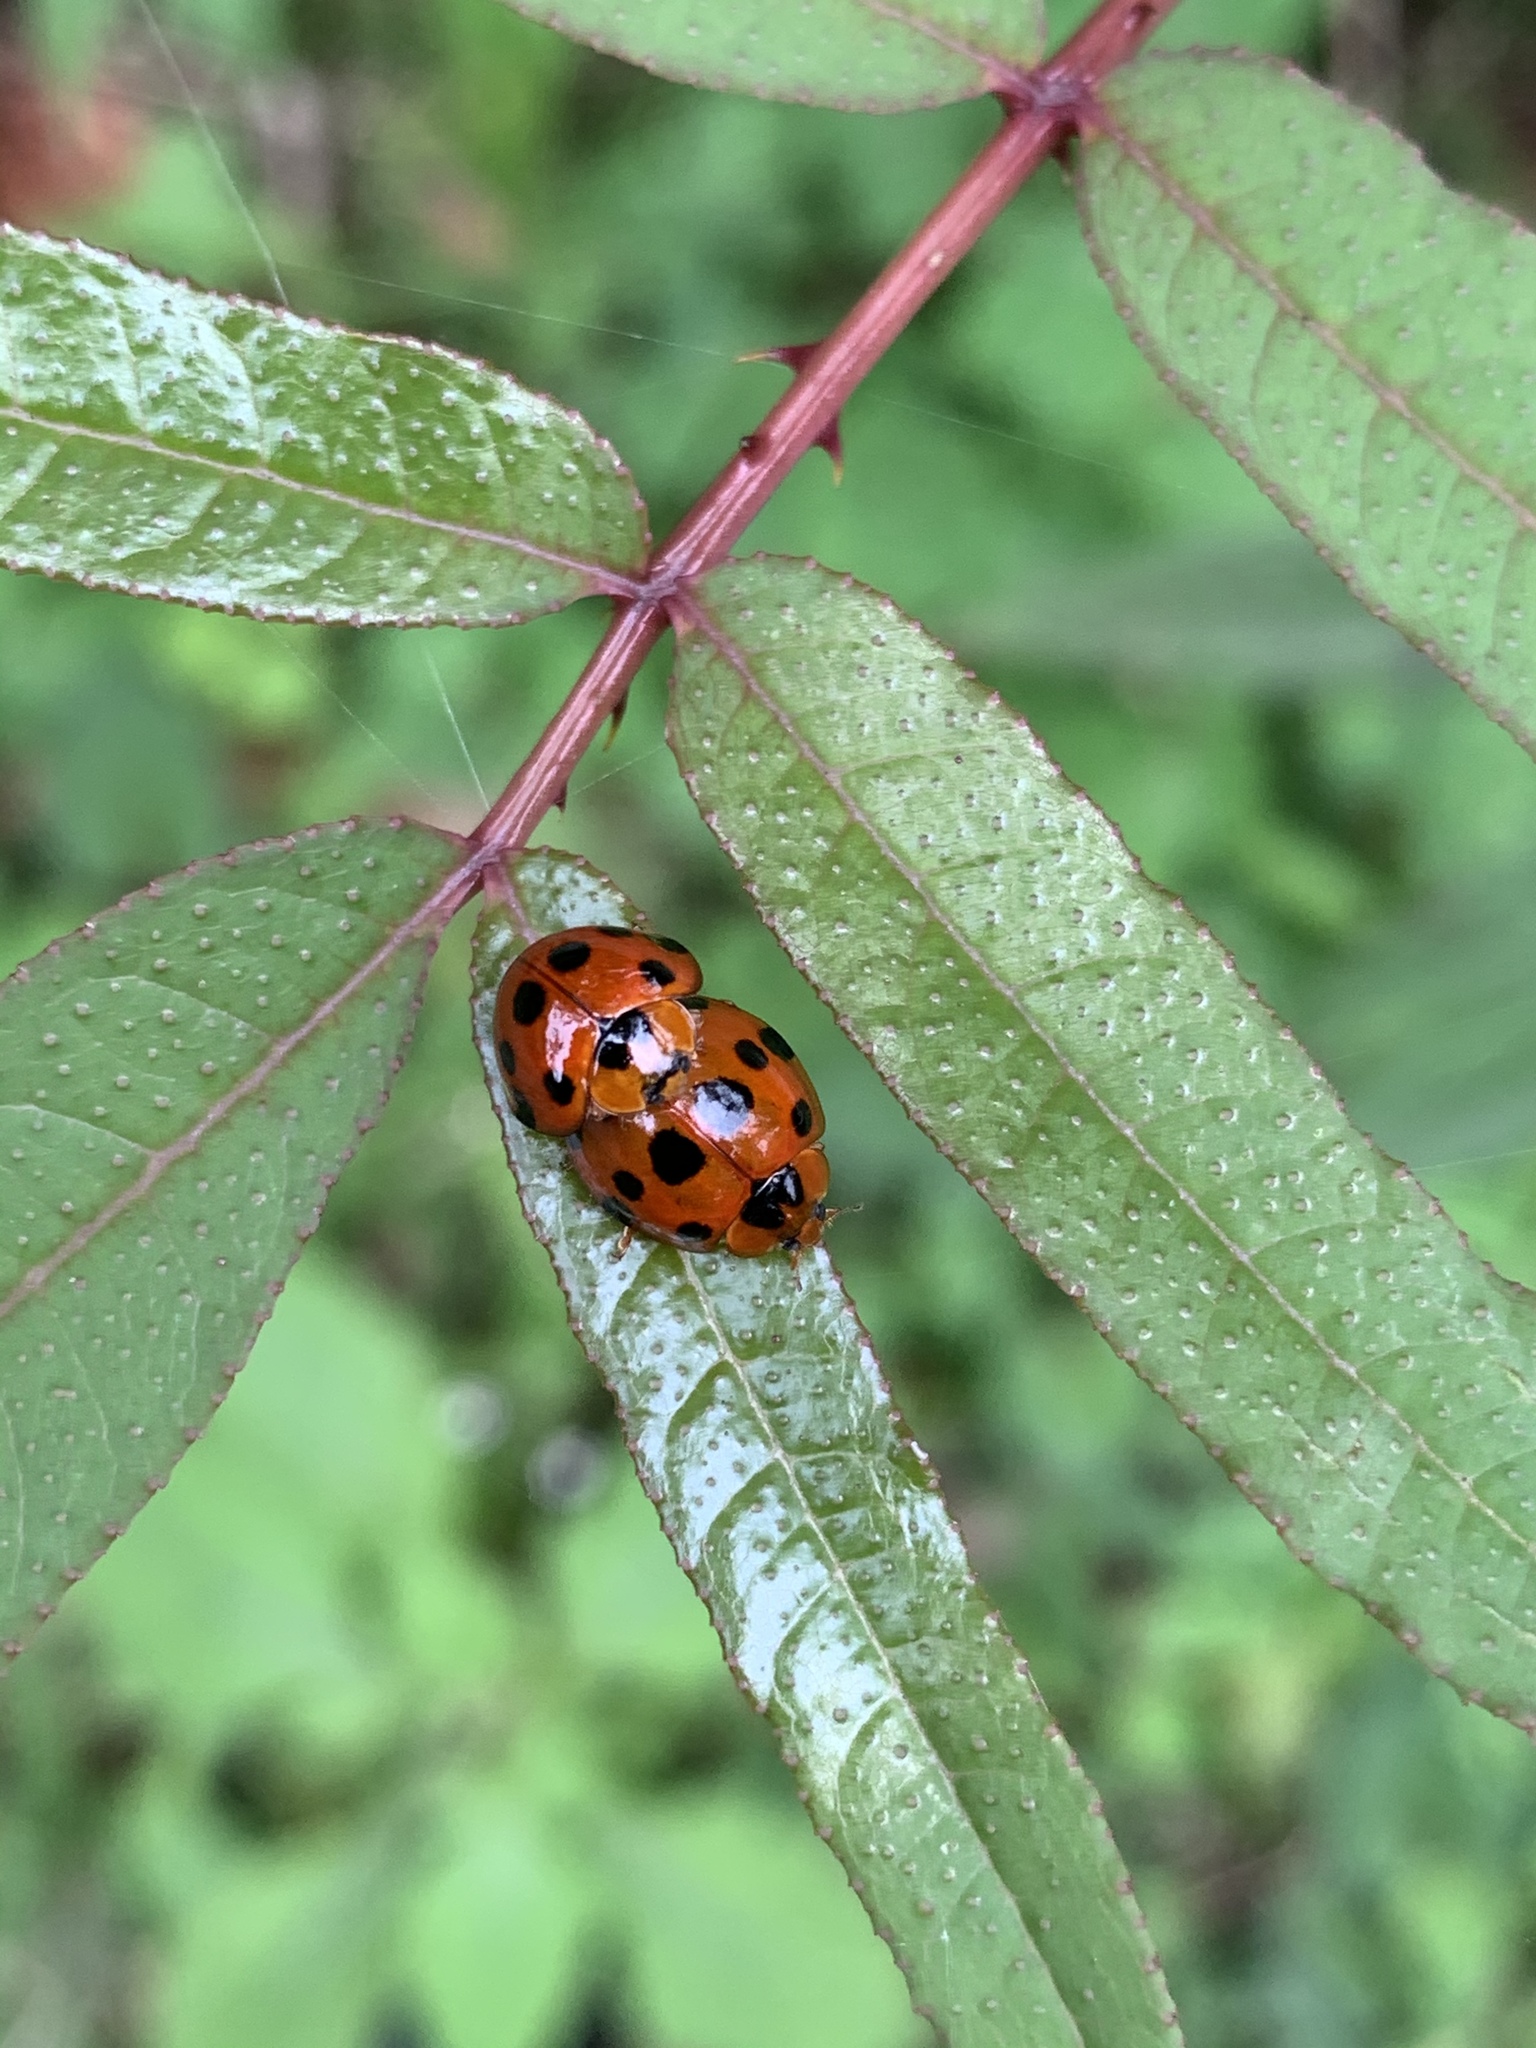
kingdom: Animalia
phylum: Arthropoda
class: Insecta
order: Coleoptera
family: Coccinellidae
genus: Harmonia
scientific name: Harmonia dimidiata
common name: Ladybird beetle
